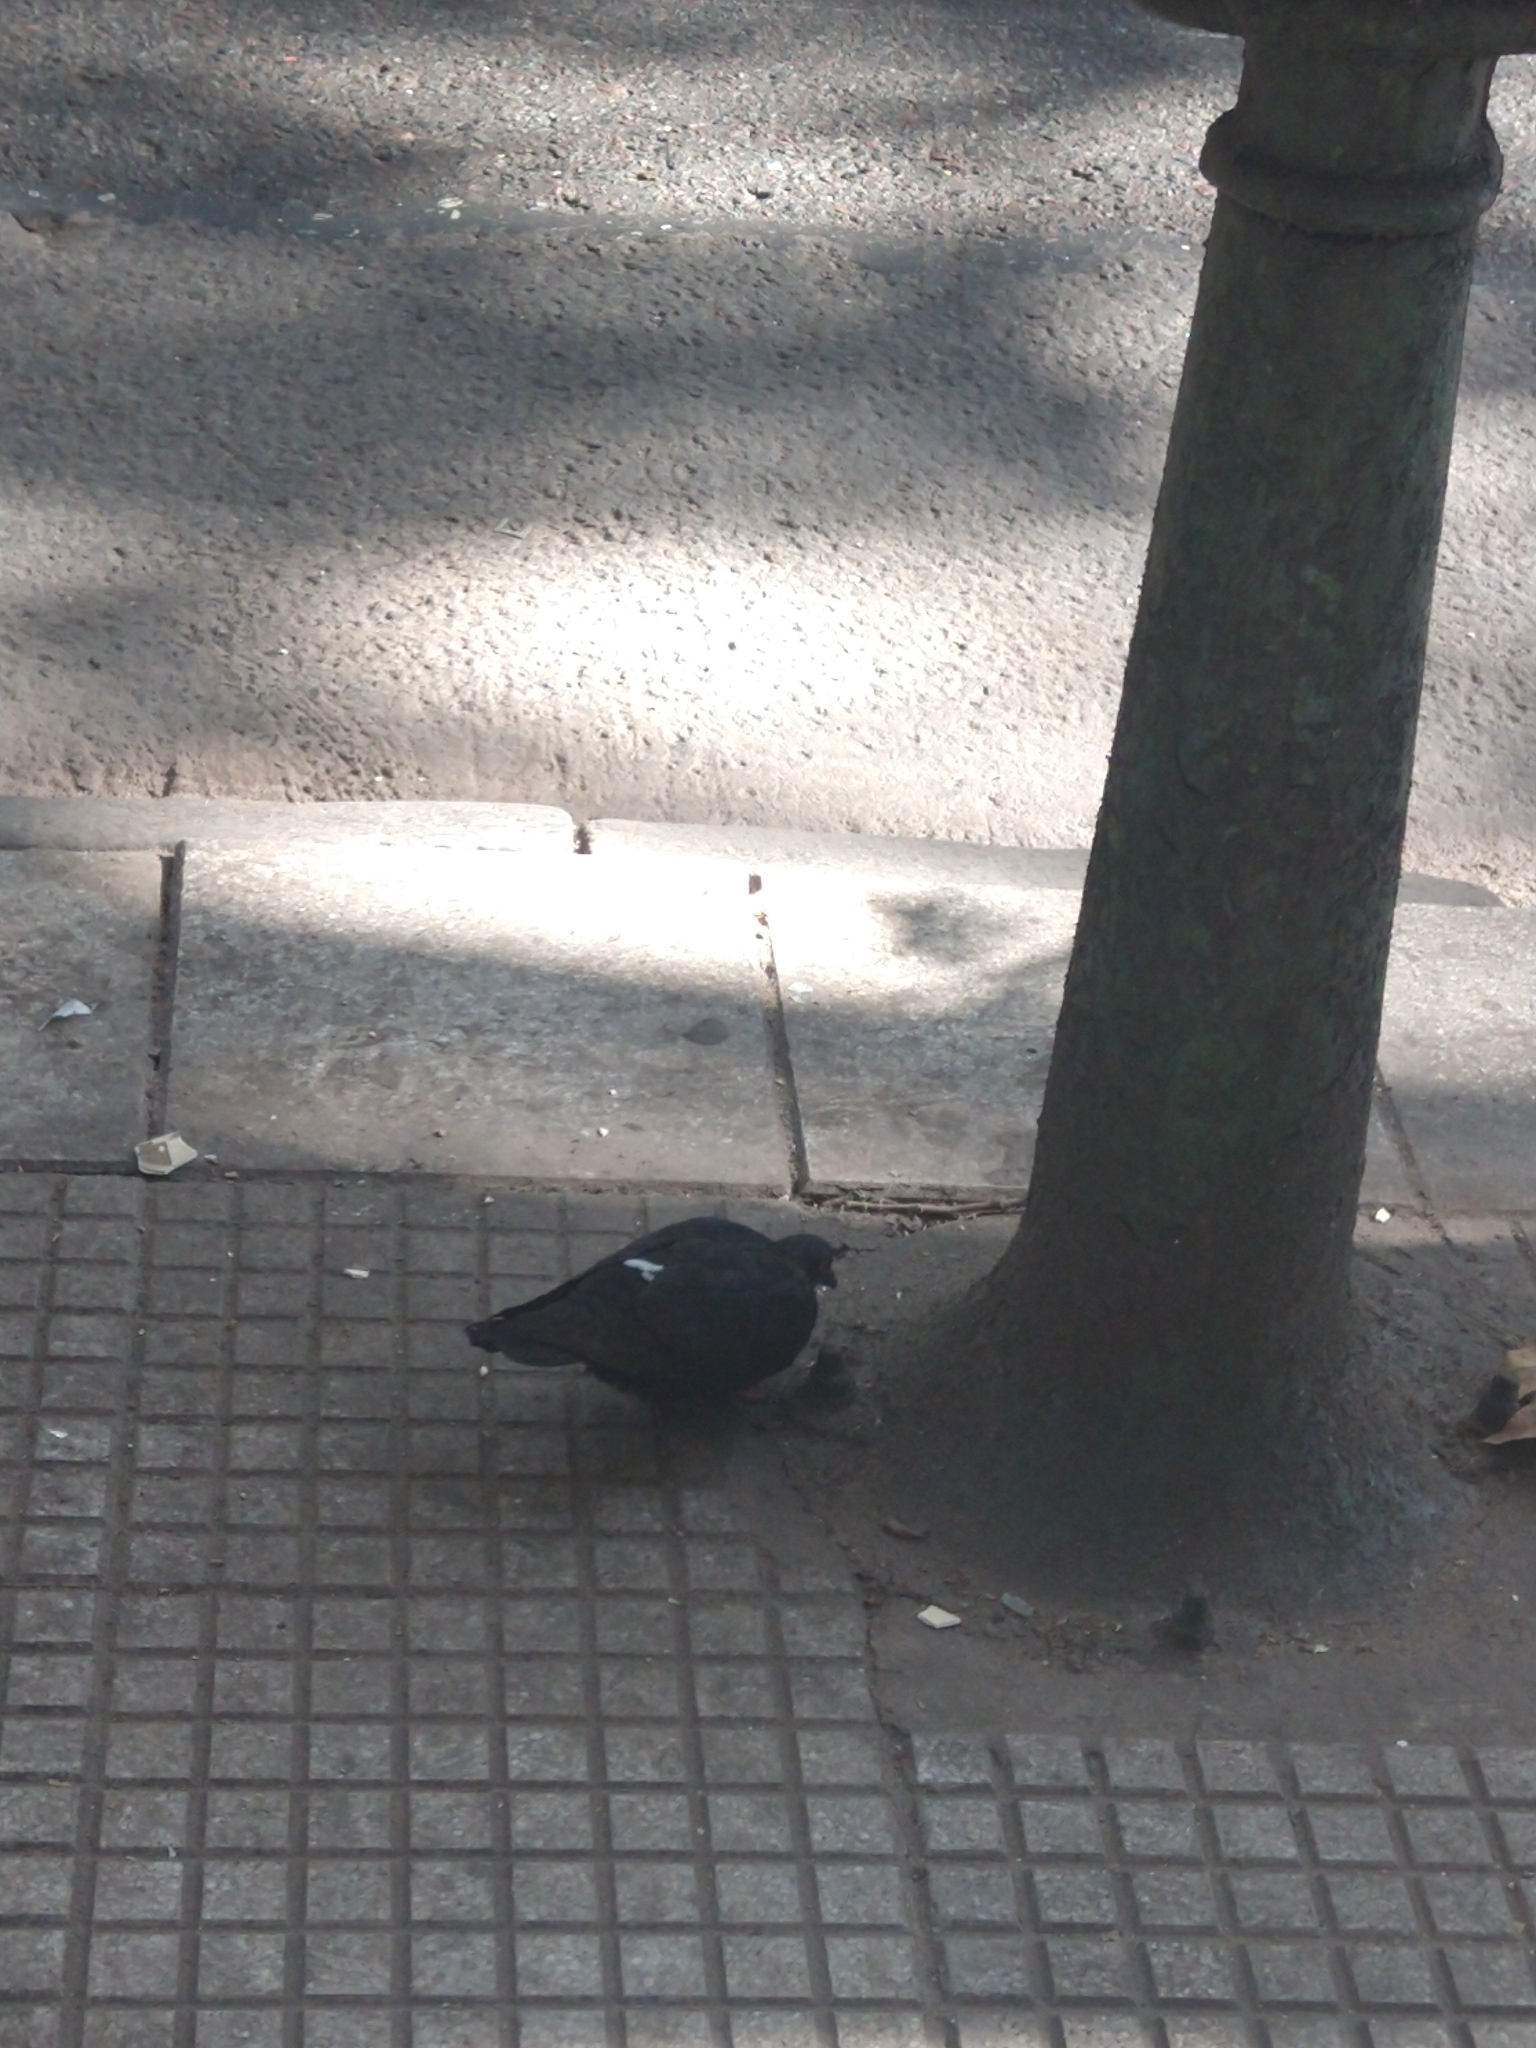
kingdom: Animalia
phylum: Chordata
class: Aves
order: Columbiformes
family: Columbidae
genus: Columba
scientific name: Columba livia
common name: Rock pigeon
